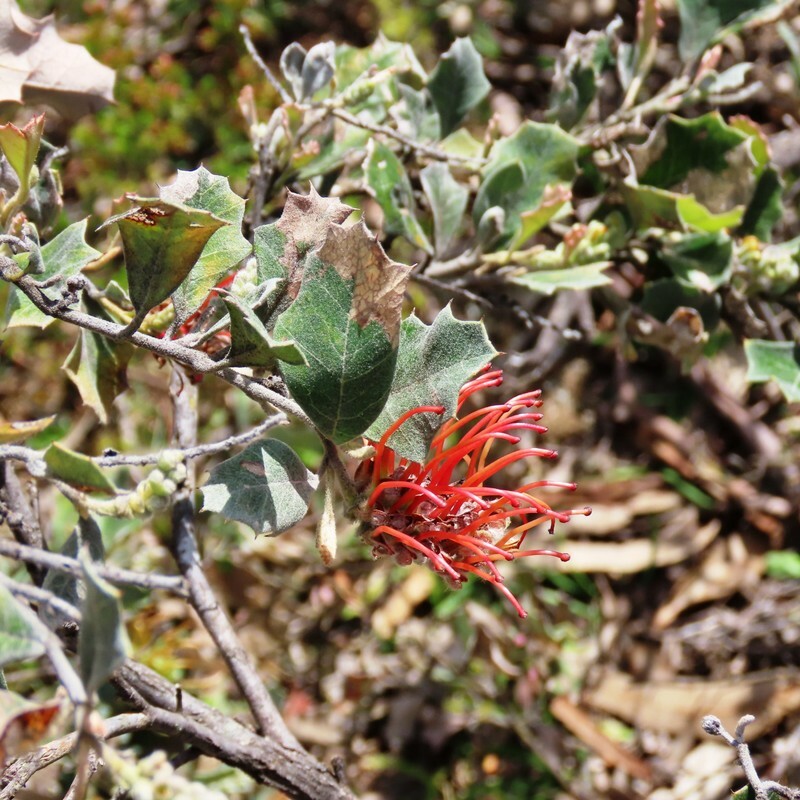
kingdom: Plantae
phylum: Tracheophyta
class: Magnoliopsida
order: Proteales
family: Proteaceae
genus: Grevillea
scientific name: Grevillea aquifolium
